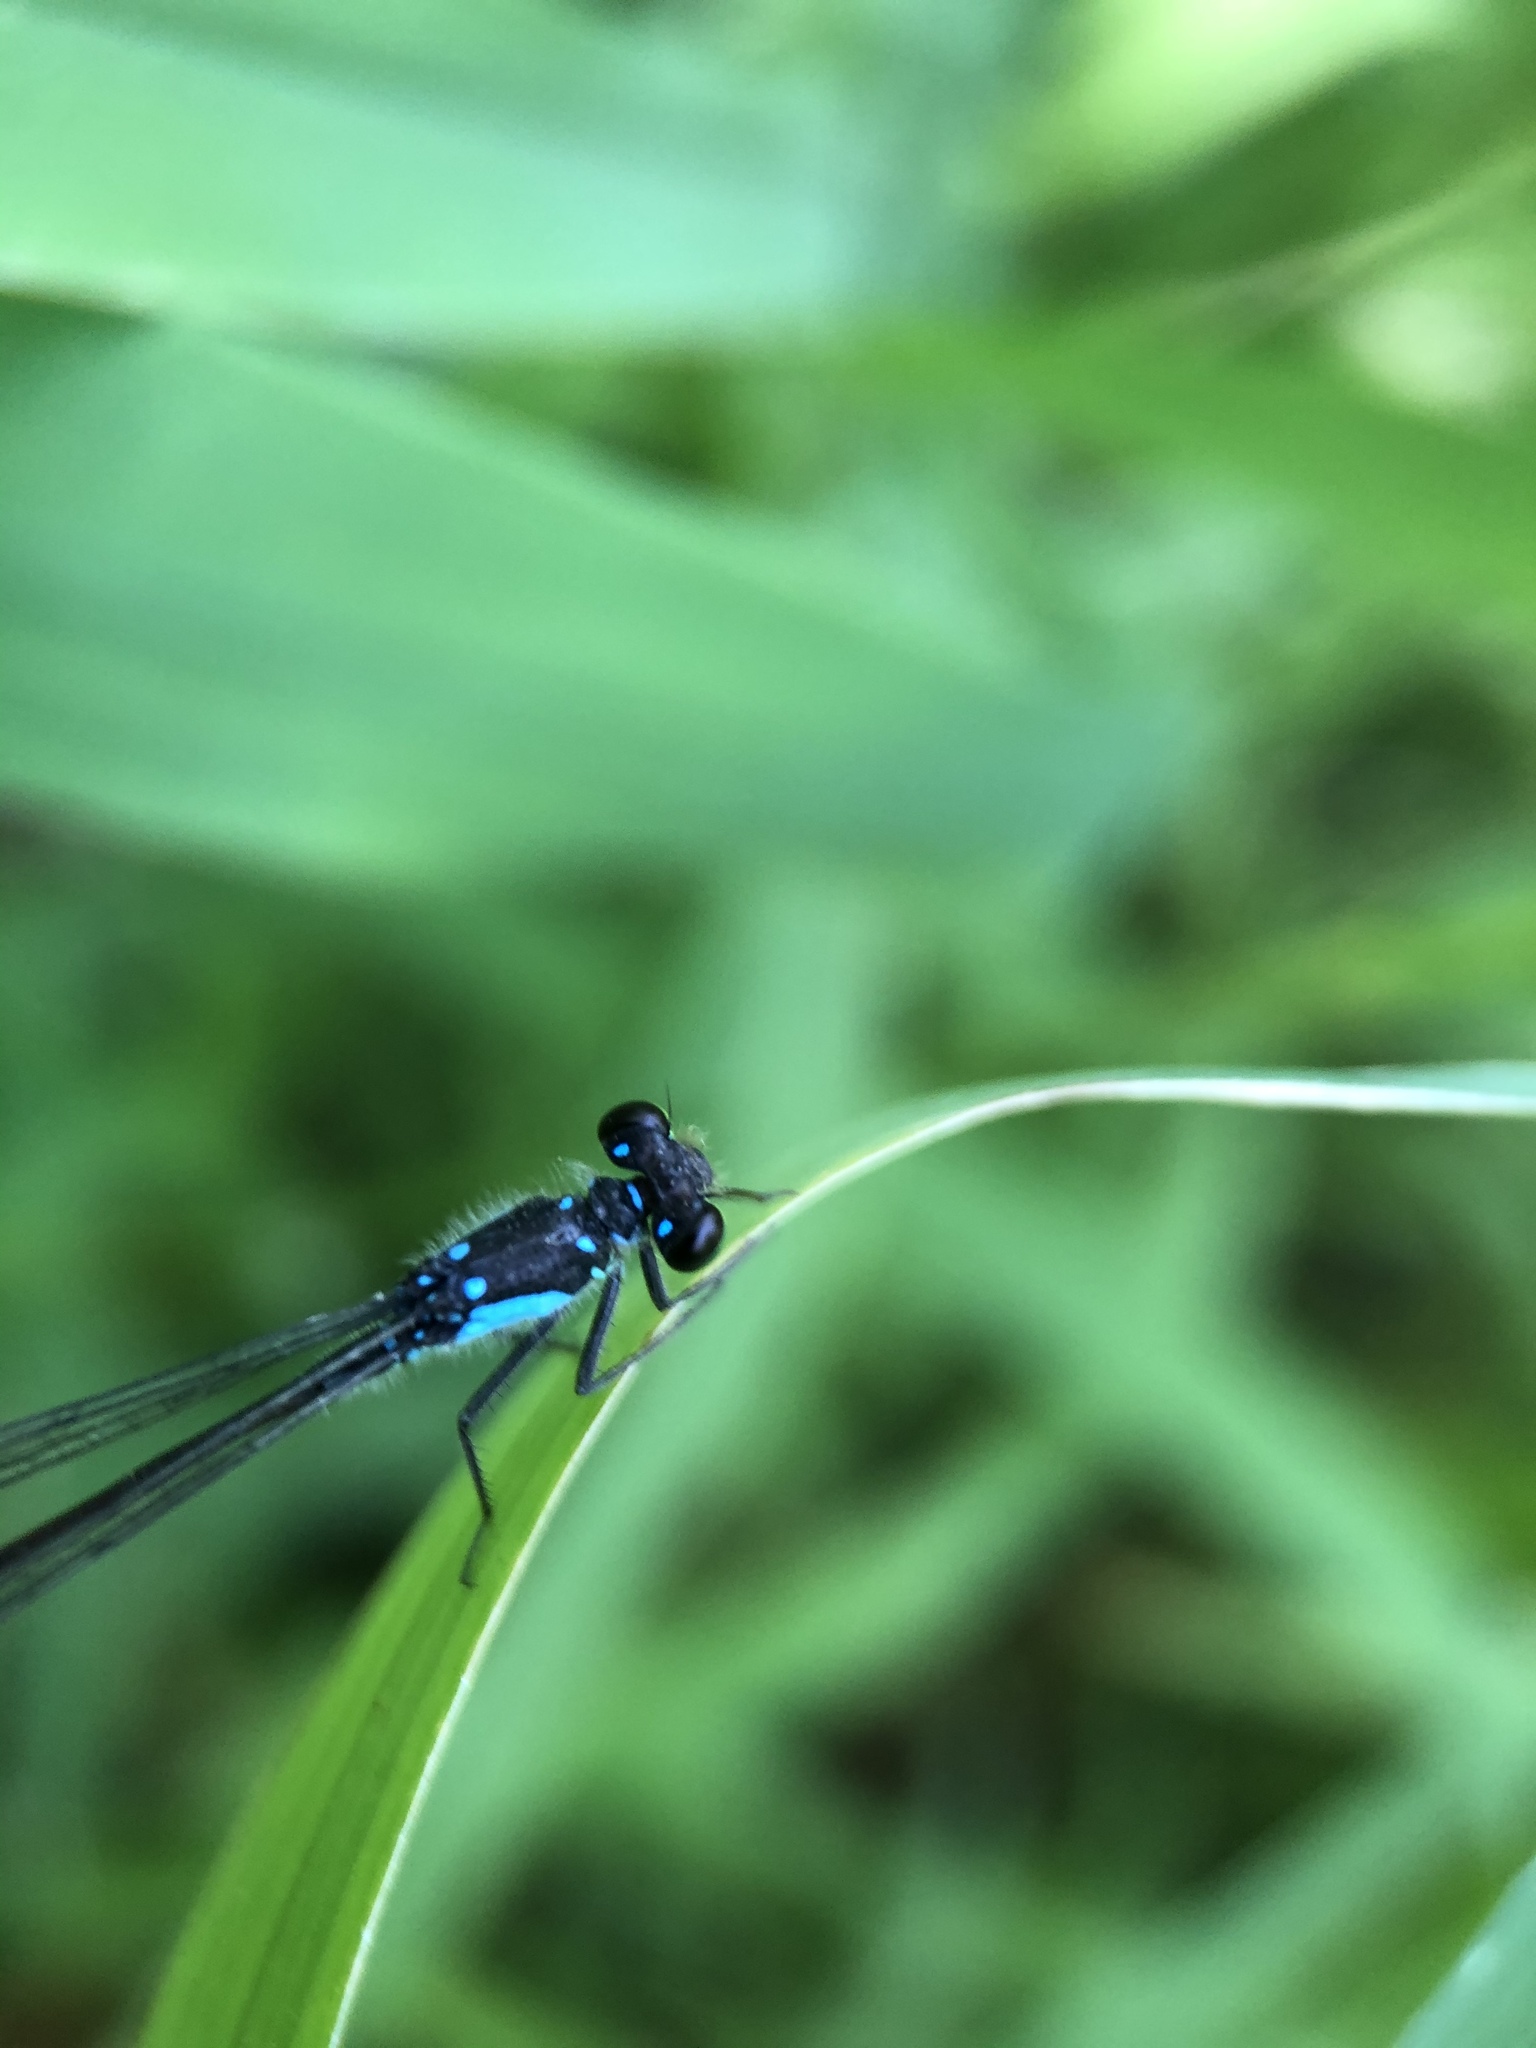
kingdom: Animalia
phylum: Arthropoda
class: Insecta
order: Odonata
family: Coenagrionidae
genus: Ischnura
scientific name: Ischnura cervula
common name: Pacific forktail
